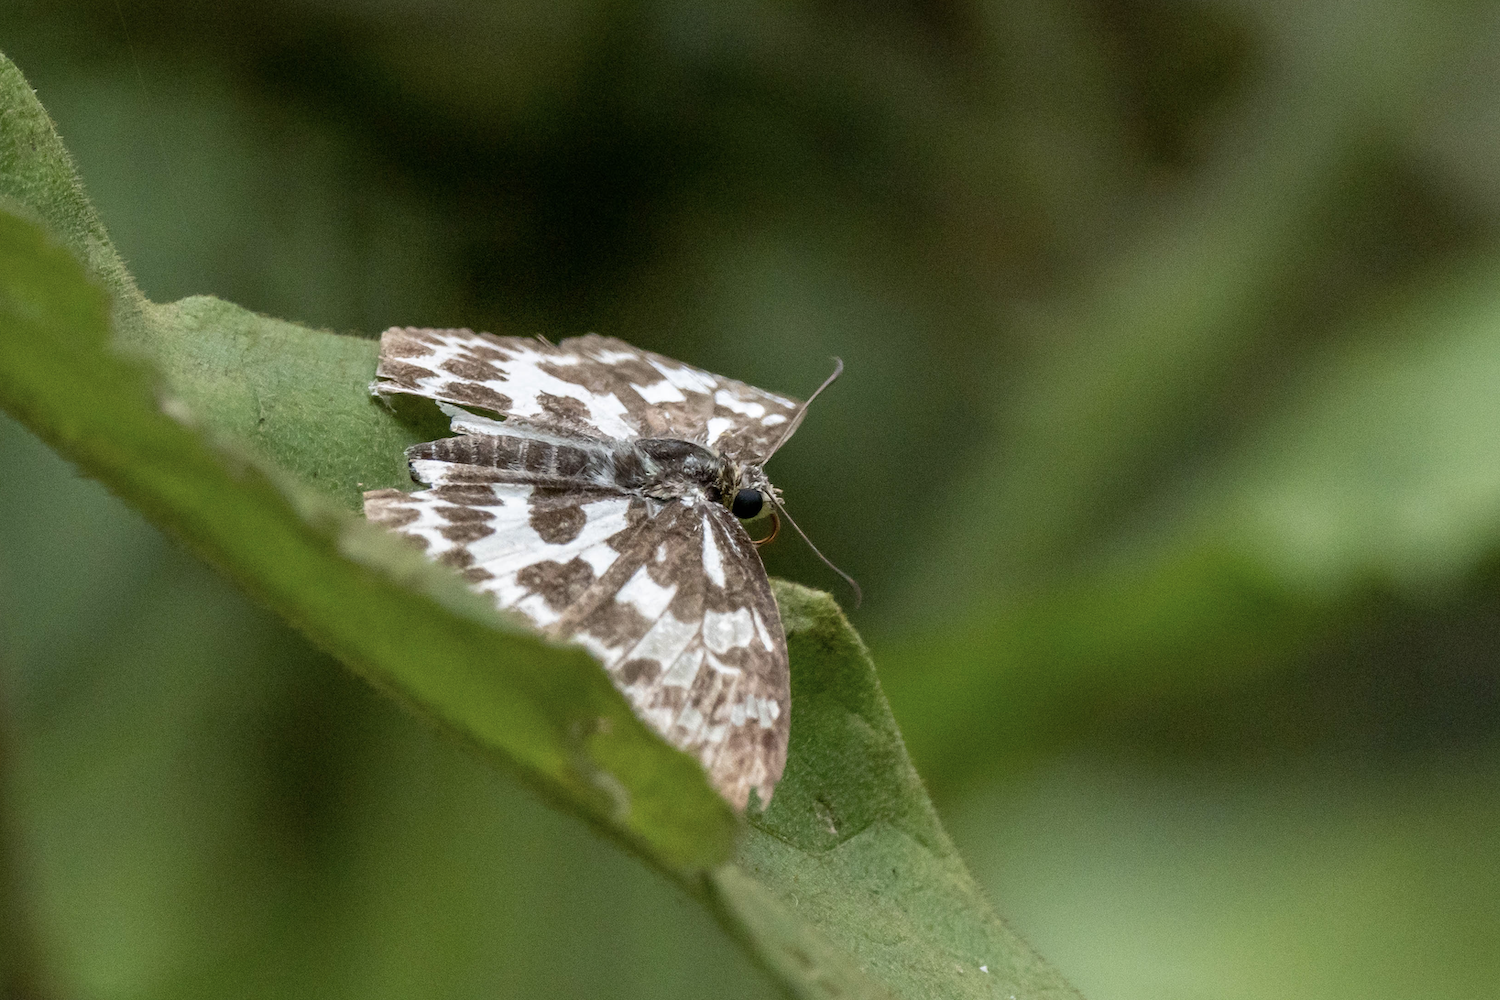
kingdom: Animalia
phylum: Arthropoda
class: Insecta
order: Lepidoptera
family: Hesperiidae
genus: Abraximorpha
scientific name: Abraximorpha davidii
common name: Magpie flat
